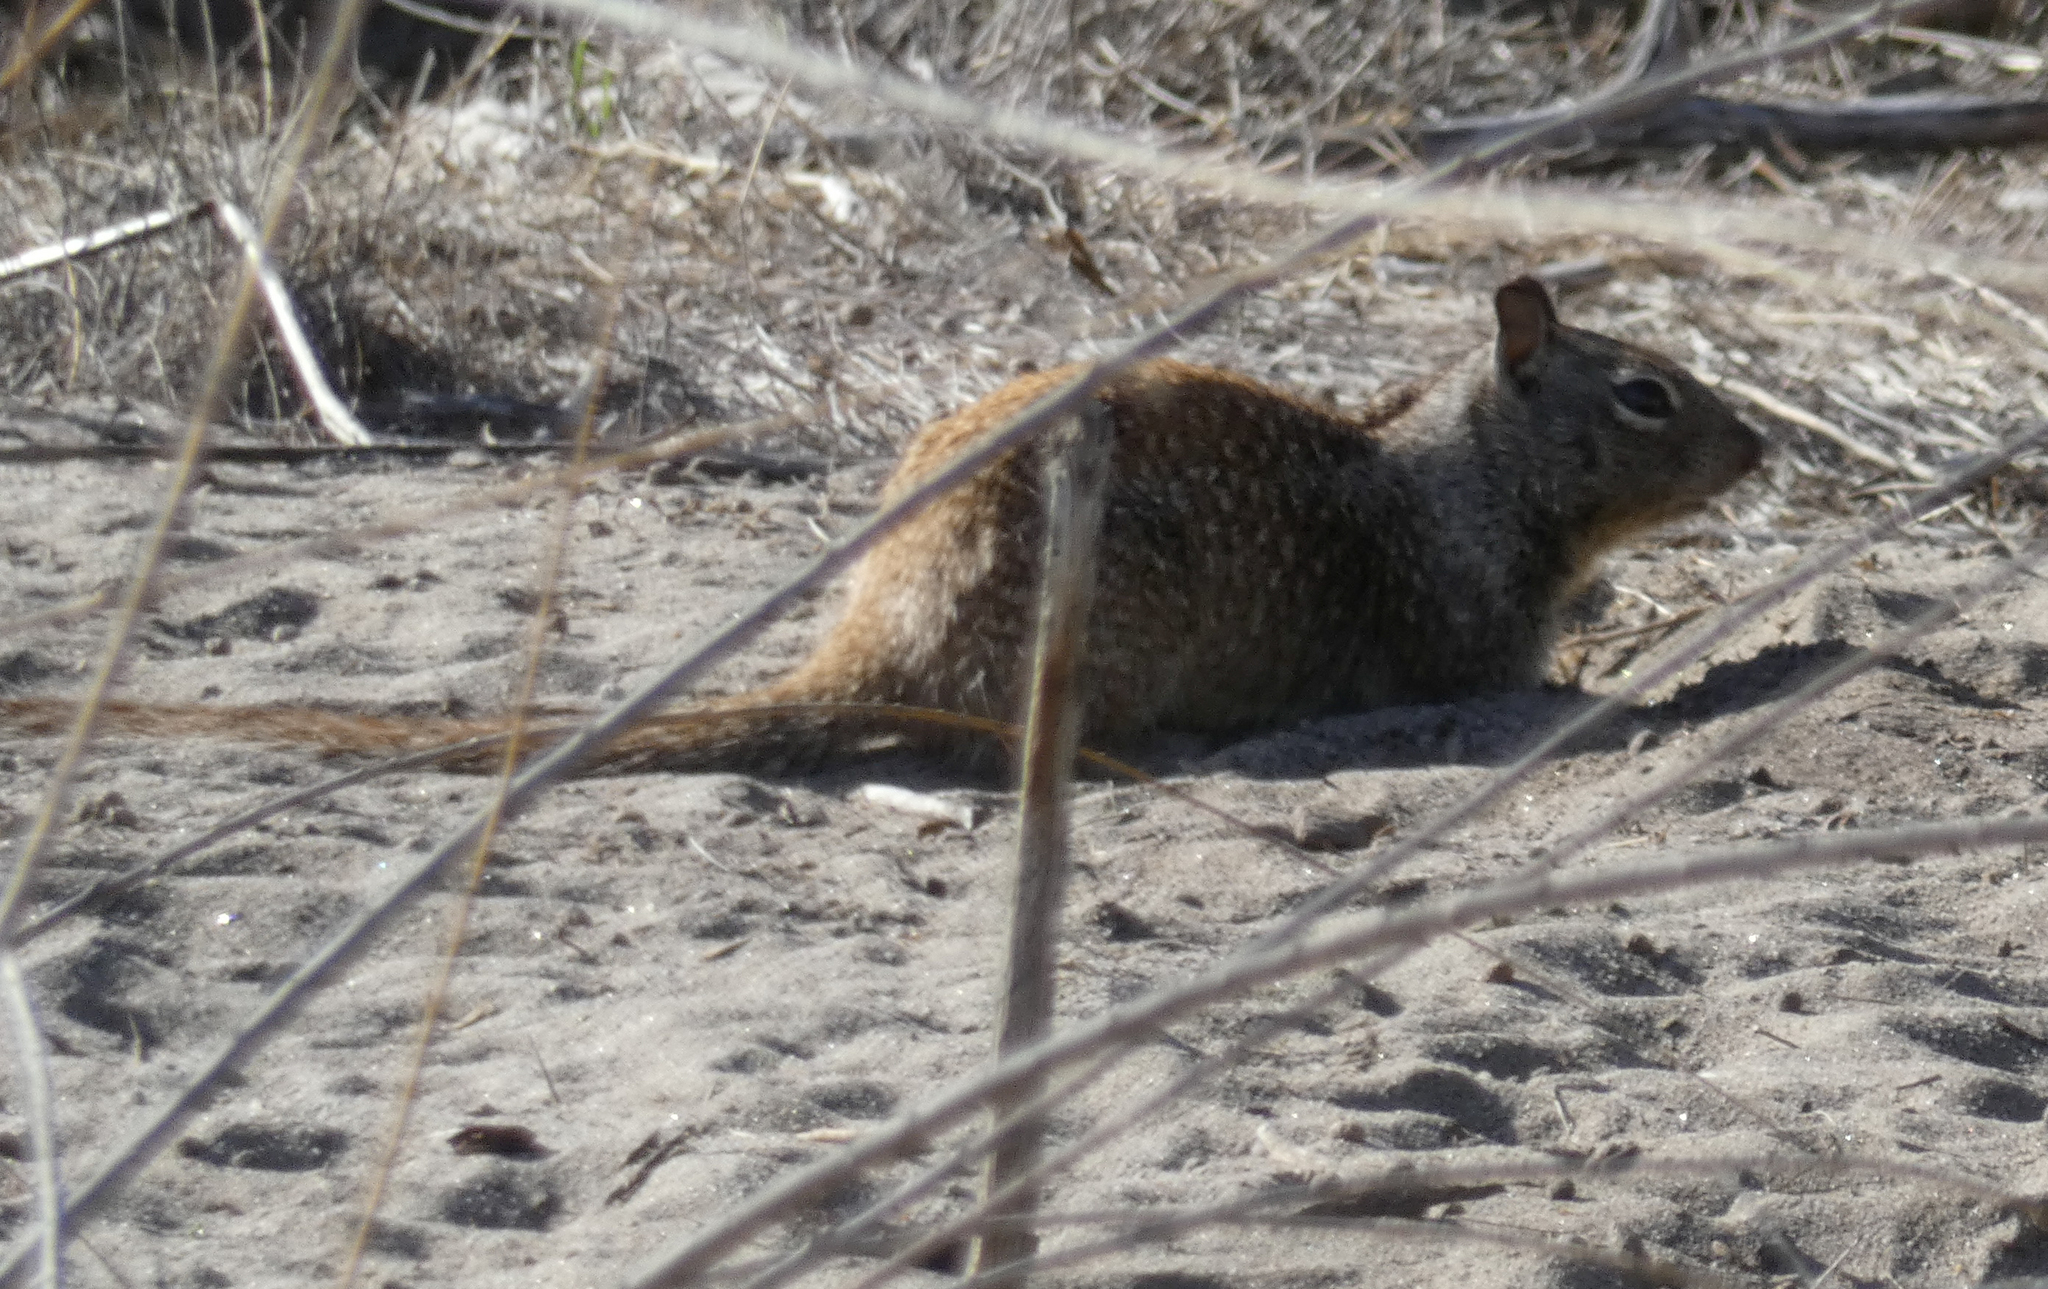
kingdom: Animalia
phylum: Chordata
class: Mammalia
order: Rodentia
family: Sciuridae
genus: Otospermophilus
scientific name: Otospermophilus beecheyi
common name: California ground squirrel
